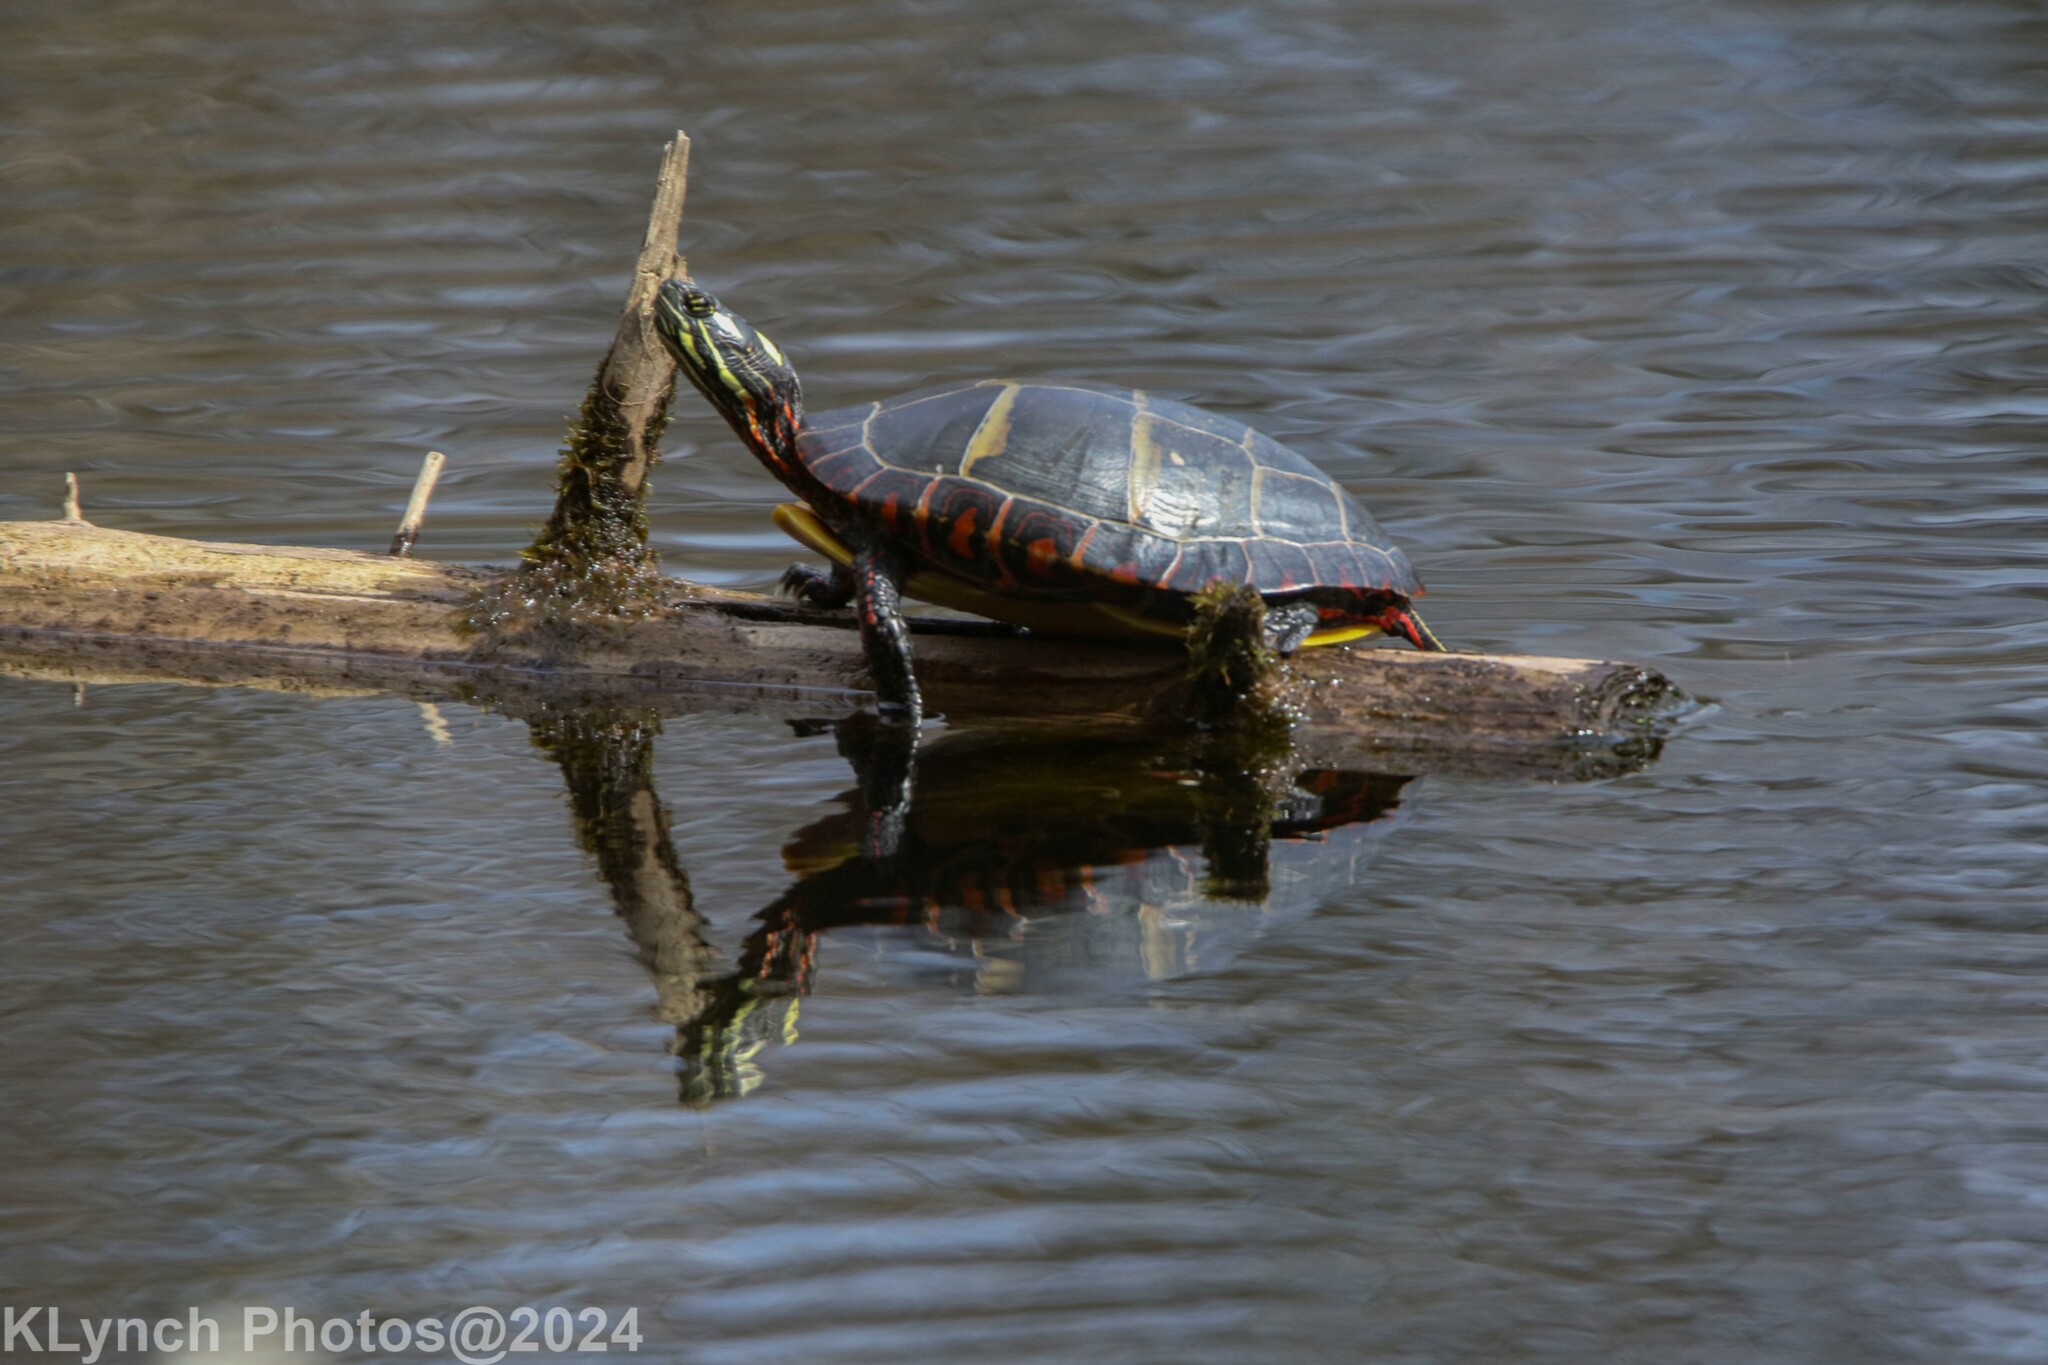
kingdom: Animalia
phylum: Chordata
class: Testudines
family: Emydidae
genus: Chrysemys
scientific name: Chrysemys picta
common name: Painted turtle
